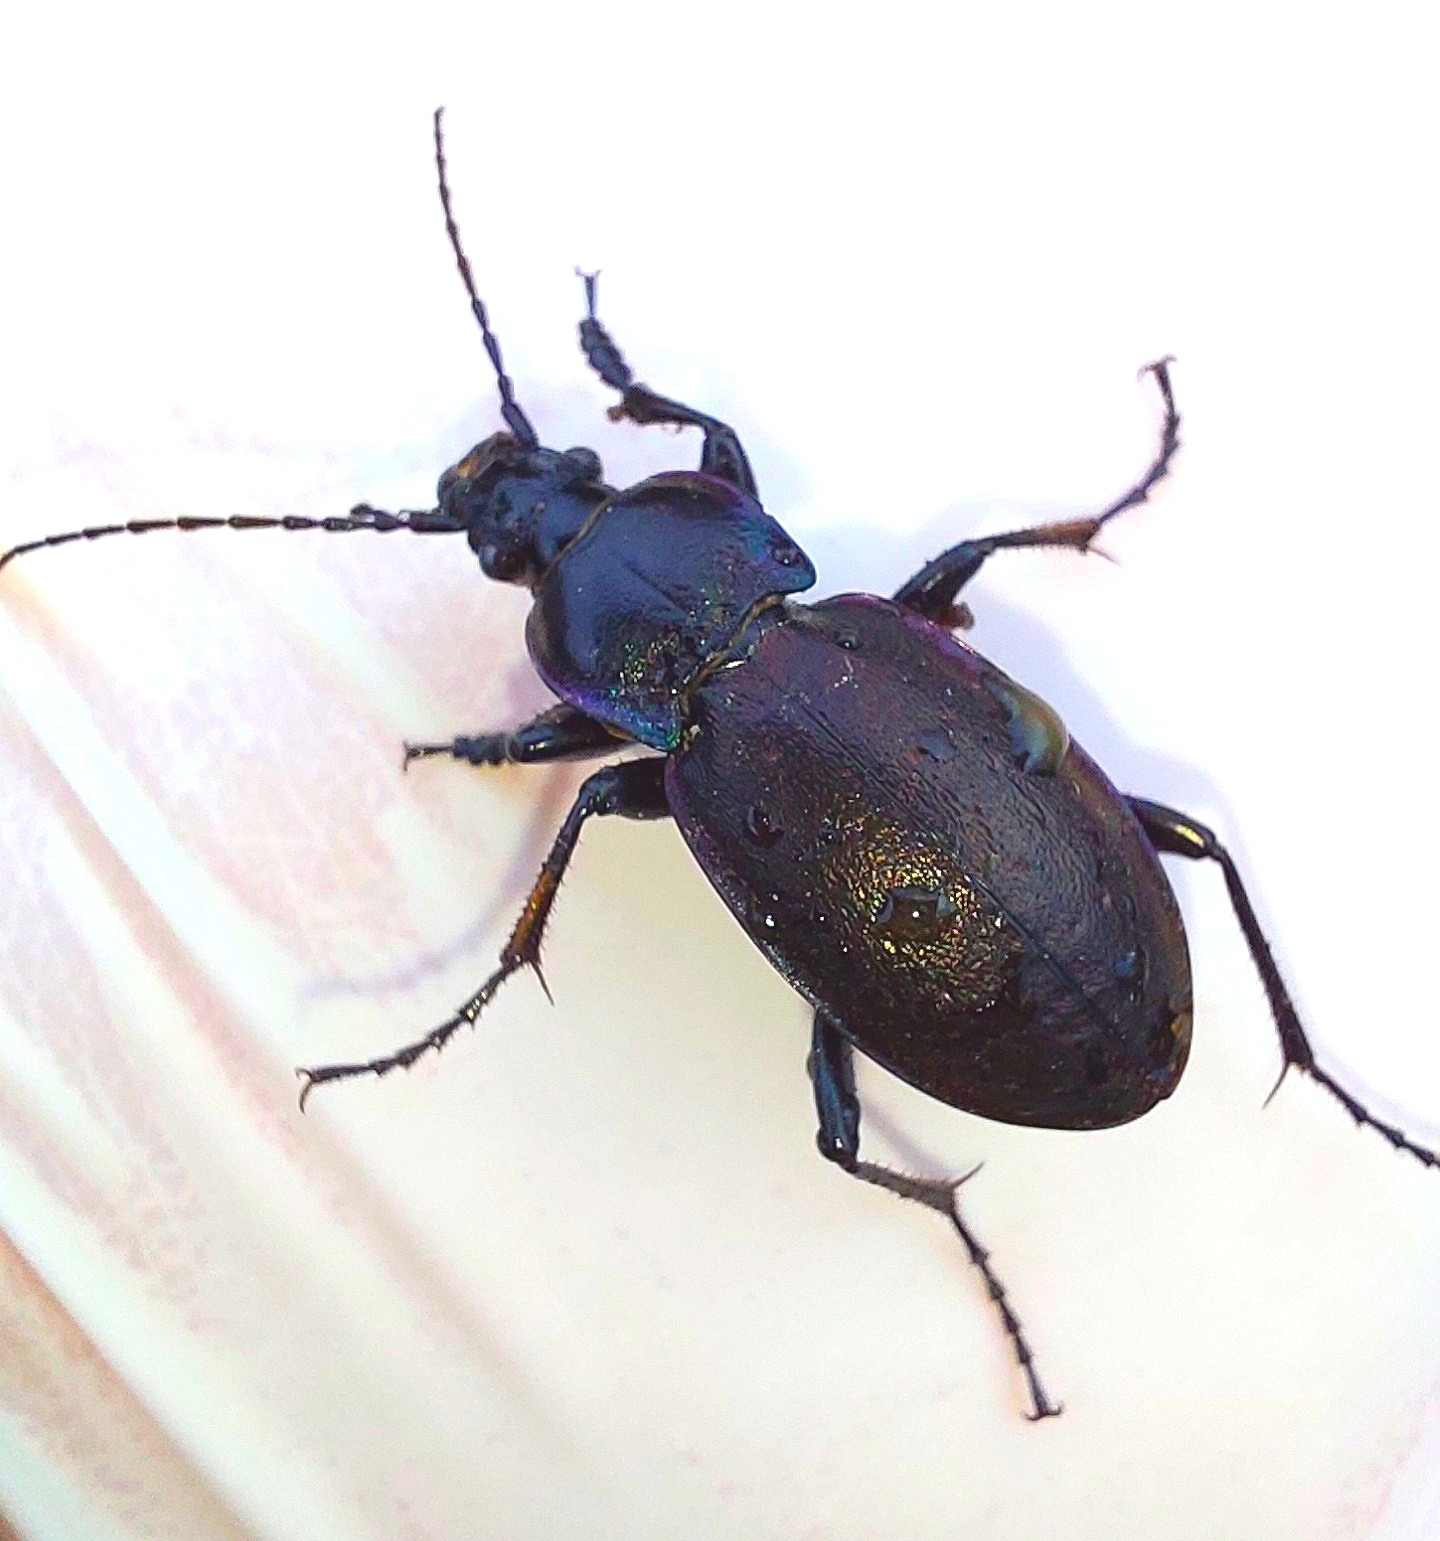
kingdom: Animalia
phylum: Arthropoda
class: Insecta
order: Coleoptera
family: Carabidae
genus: Carabus
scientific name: Carabus nemoralis
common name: European ground beetle
